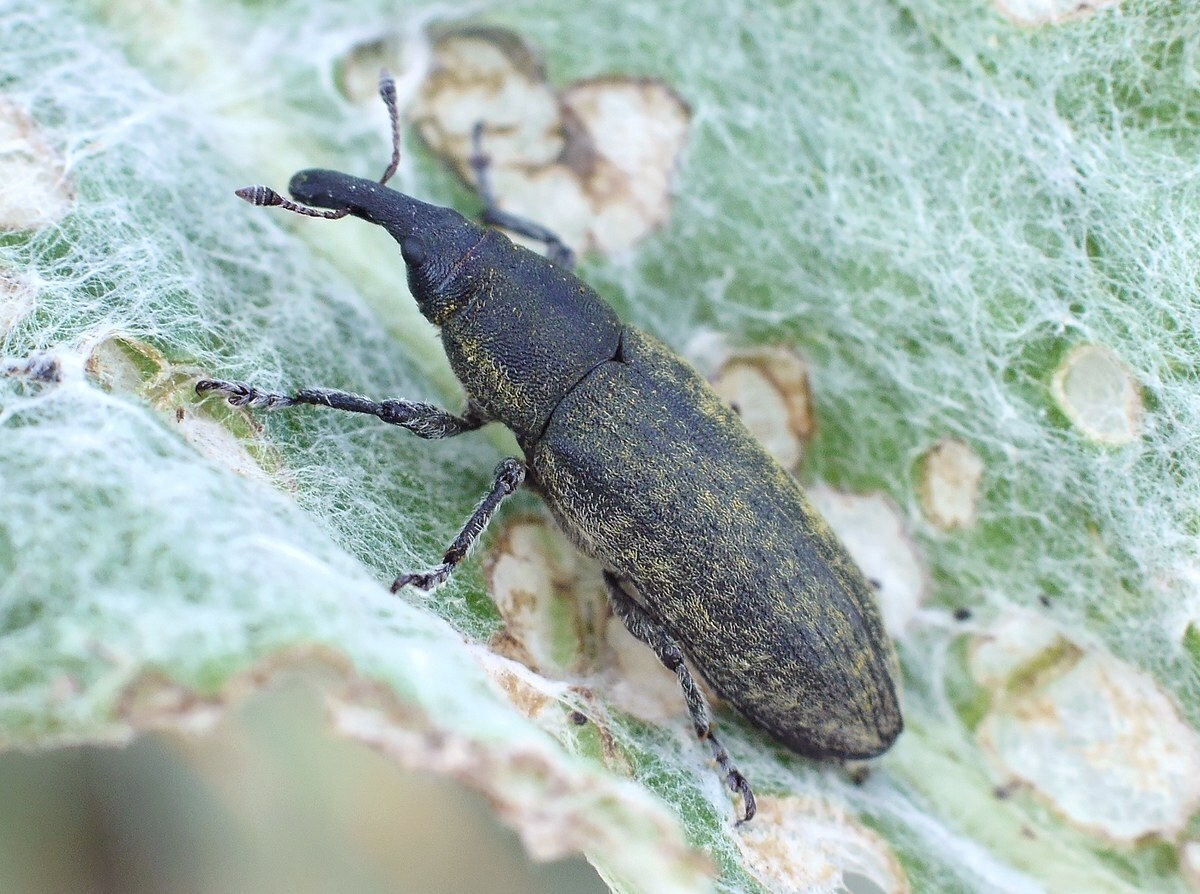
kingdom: Animalia
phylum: Arthropoda
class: Insecta
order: Coleoptera
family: Curculionidae
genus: Lixus
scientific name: Lixus cardui
